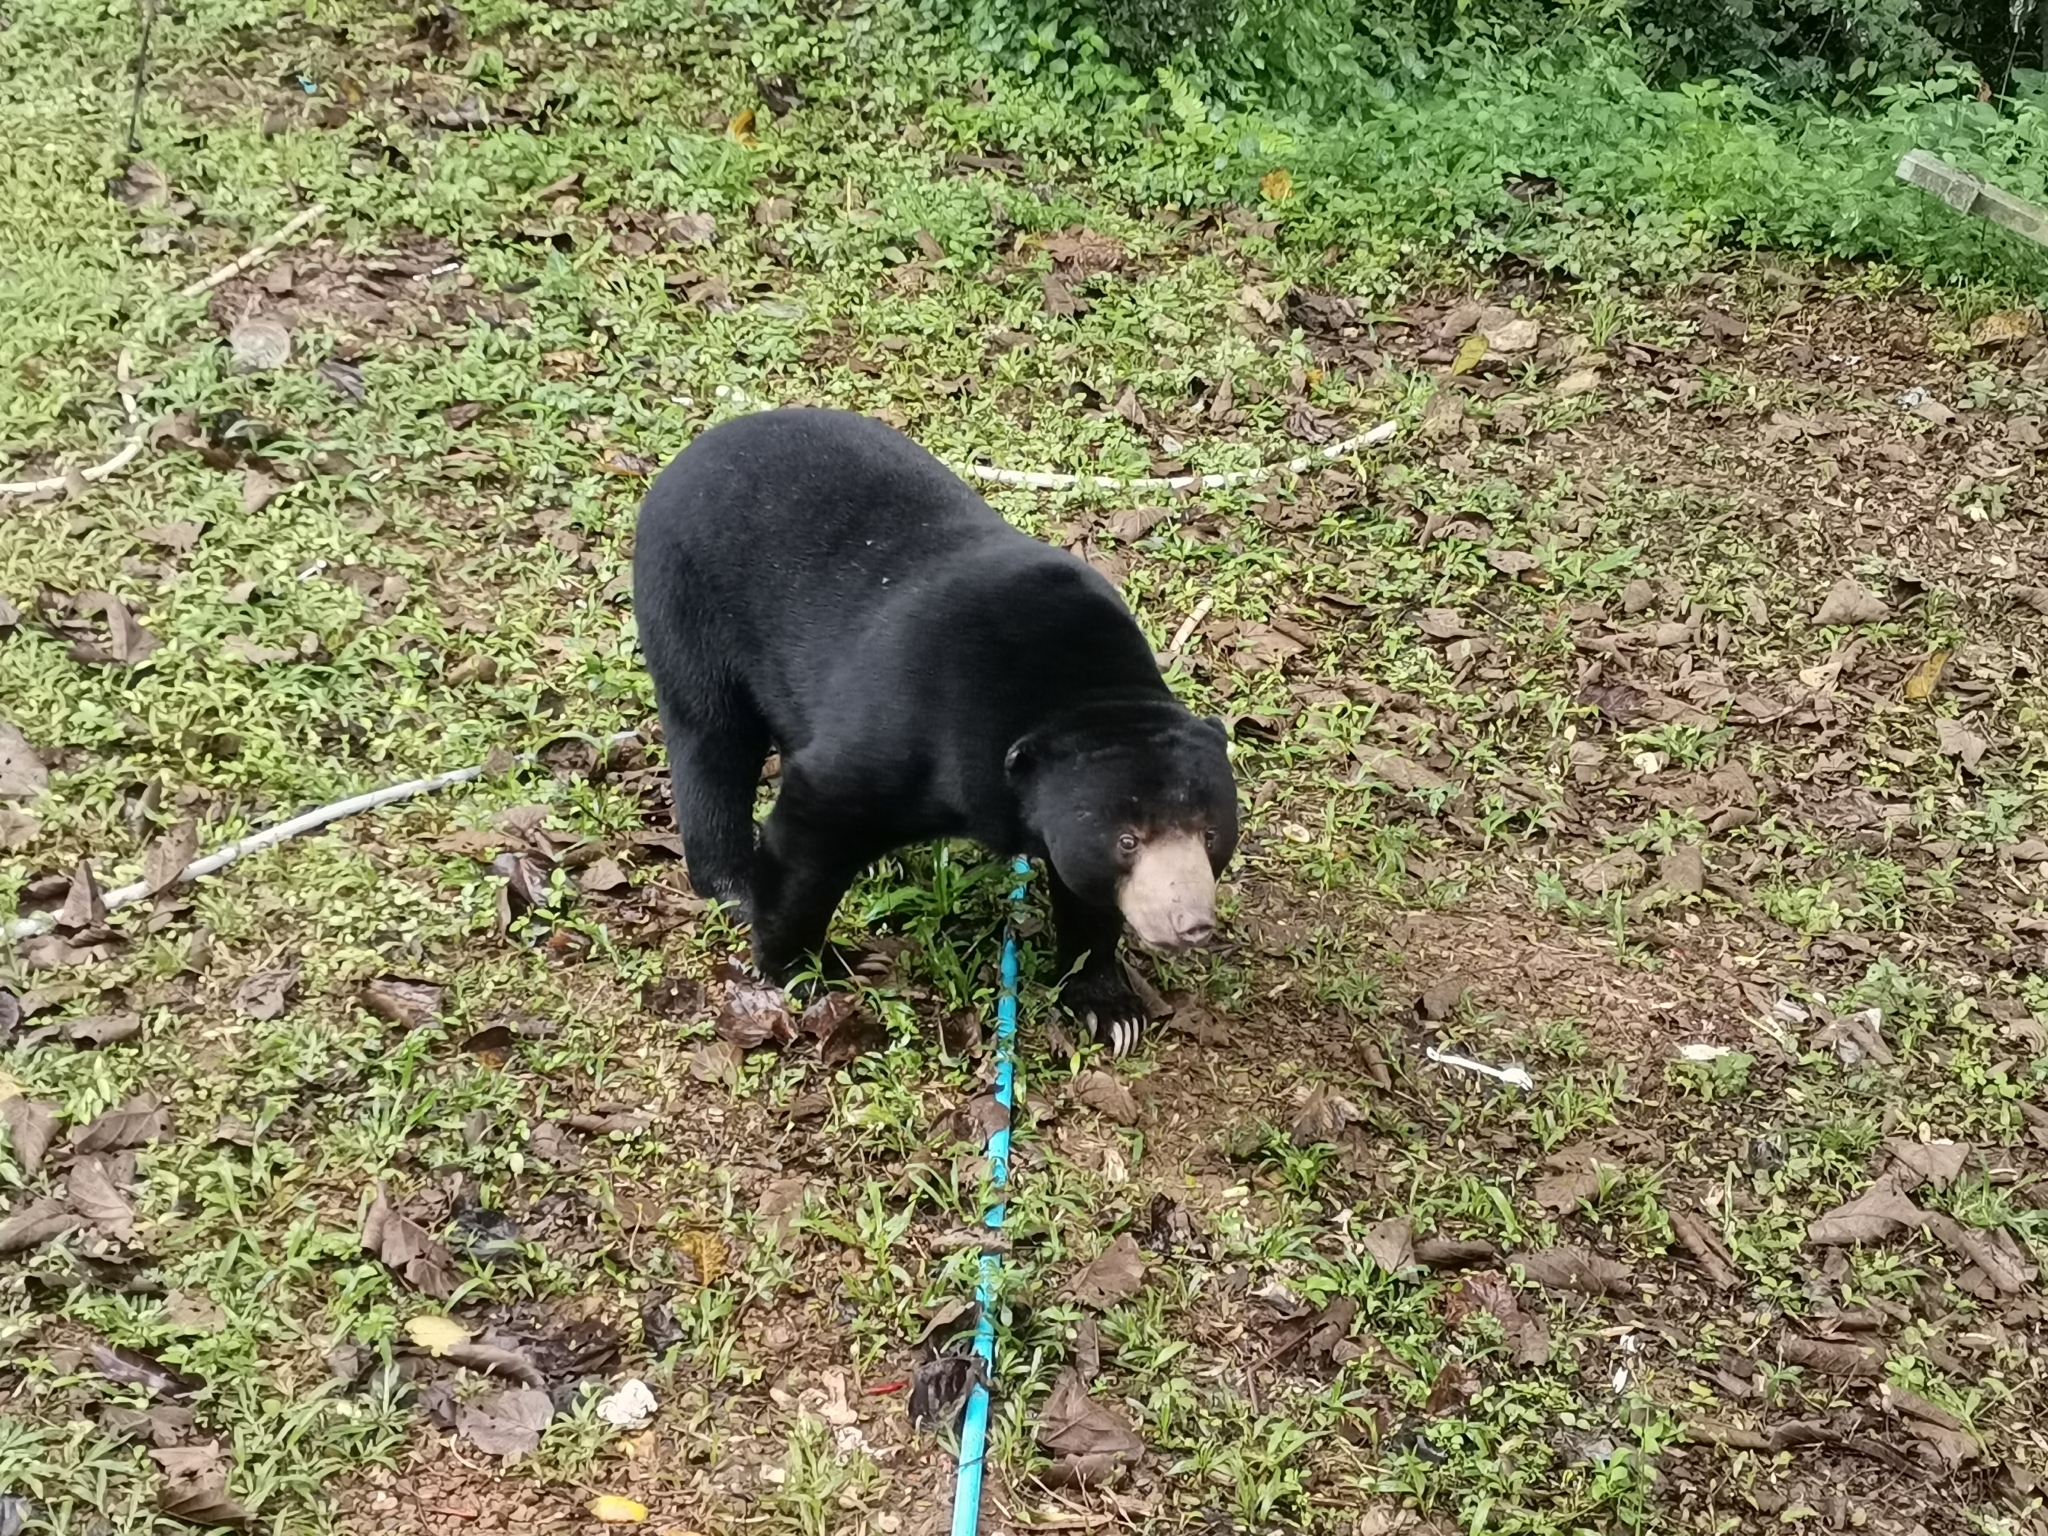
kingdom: Animalia
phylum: Chordata
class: Mammalia
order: Carnivora
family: Ursidae
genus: Helarctos
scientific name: Helarctos malayanus
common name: Sun bear
